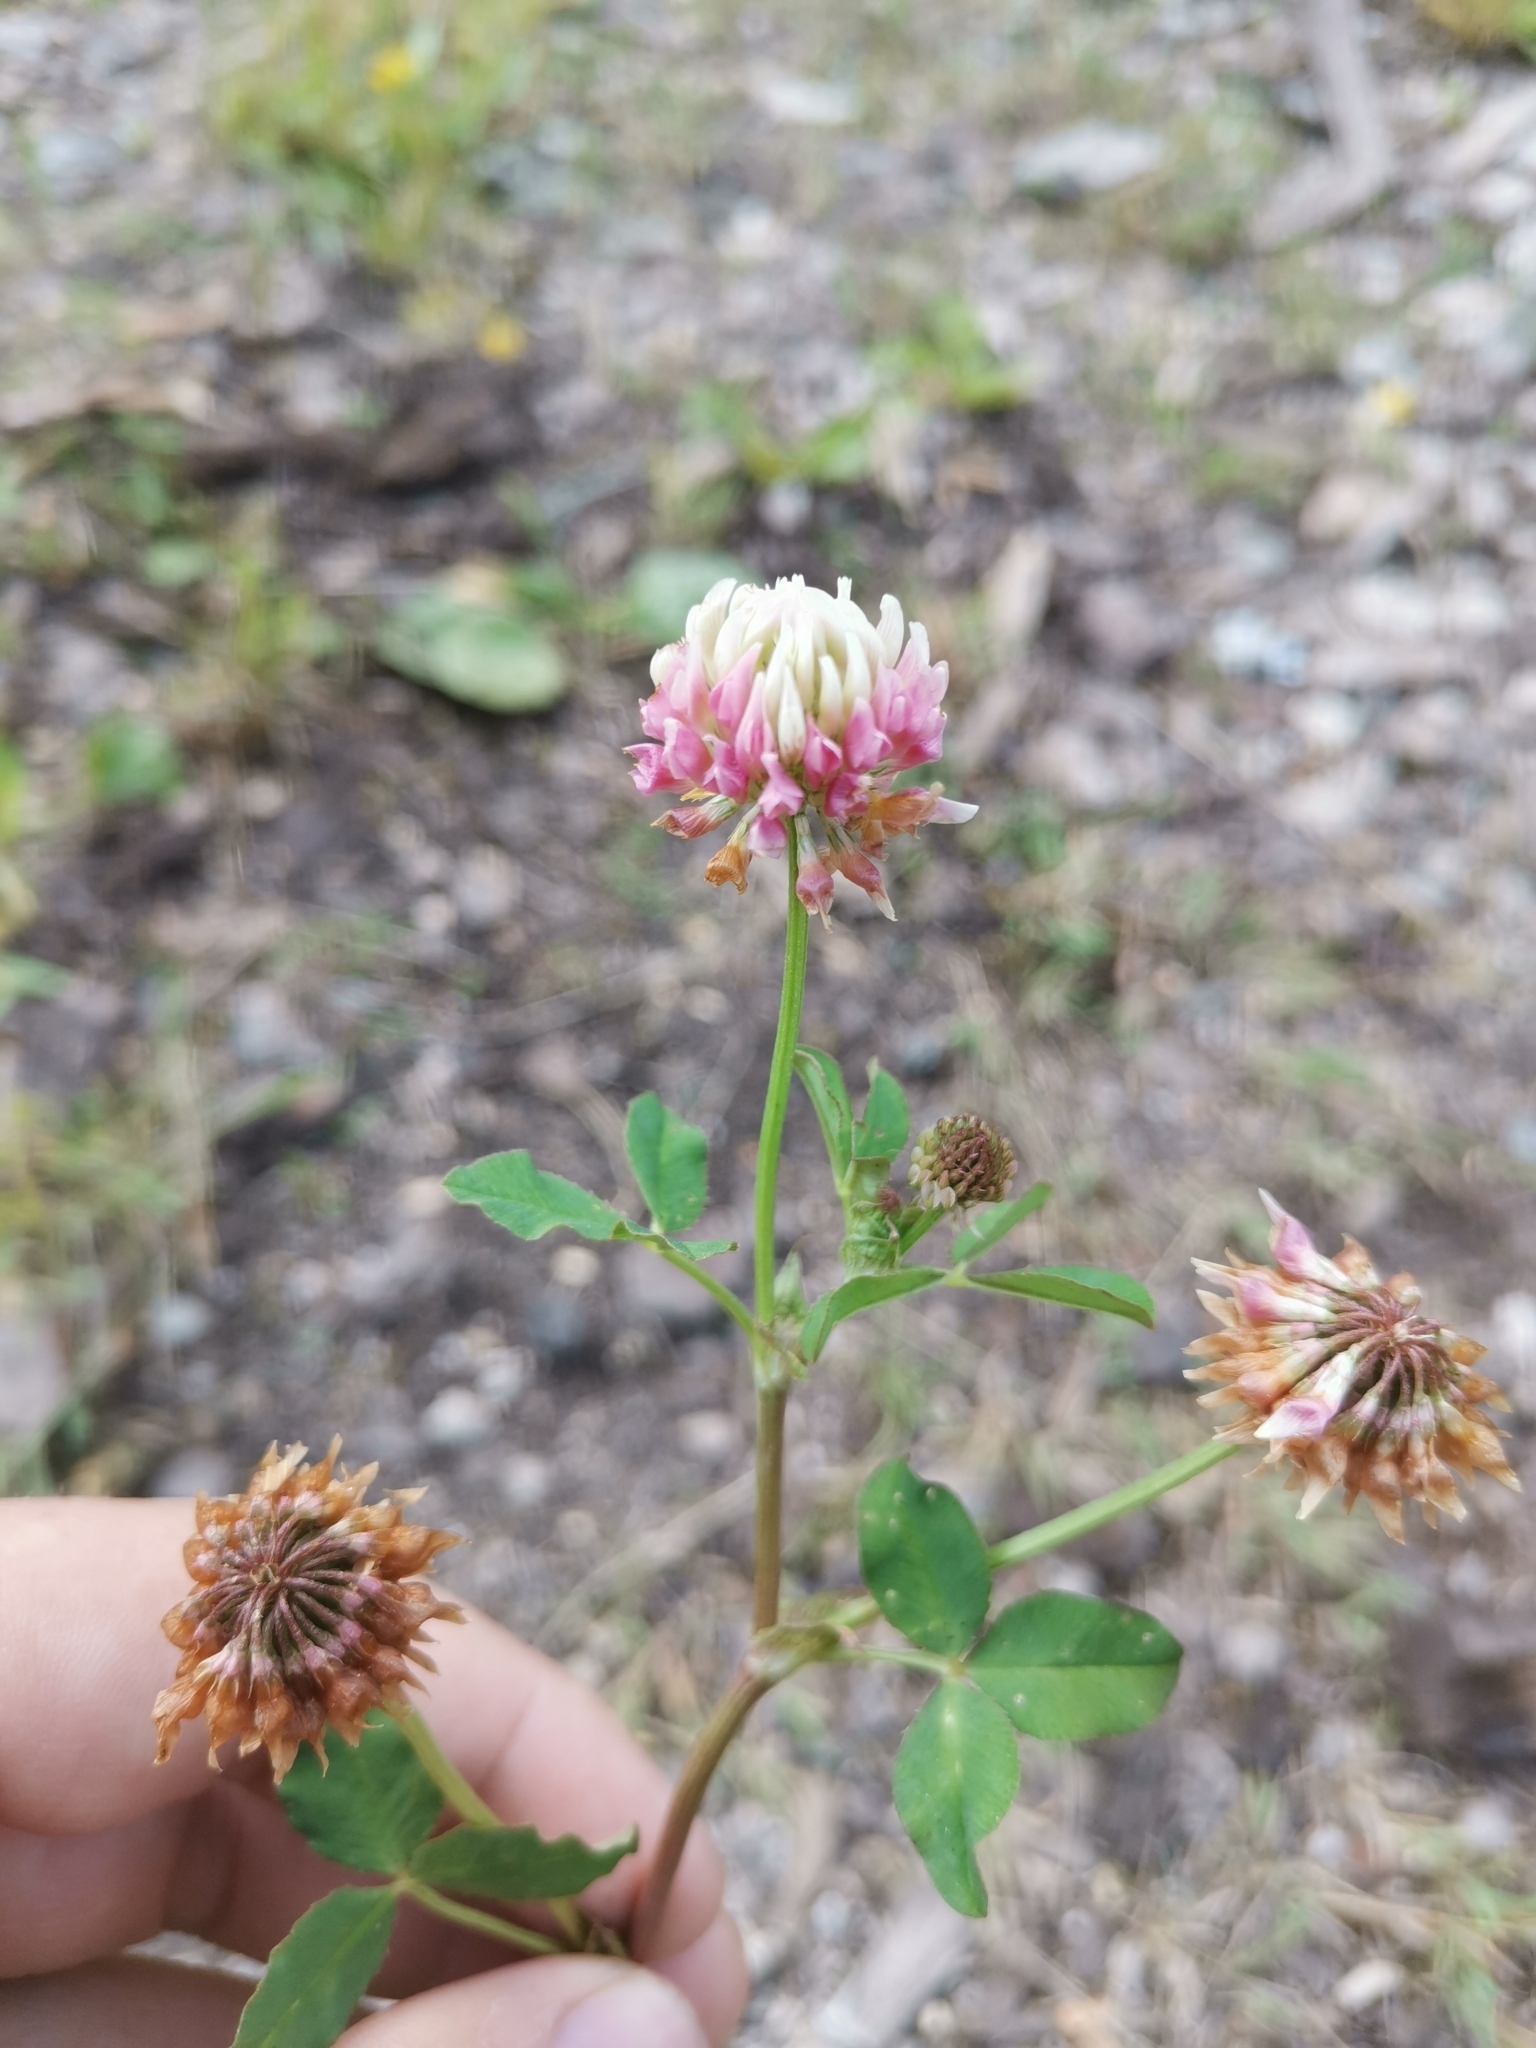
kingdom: Plantae
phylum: Tracheophyta
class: Magnoliopsida
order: Fabales
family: Fabaceae
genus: Trifolium
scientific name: Trifolium hybridum
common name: Alsike clover
